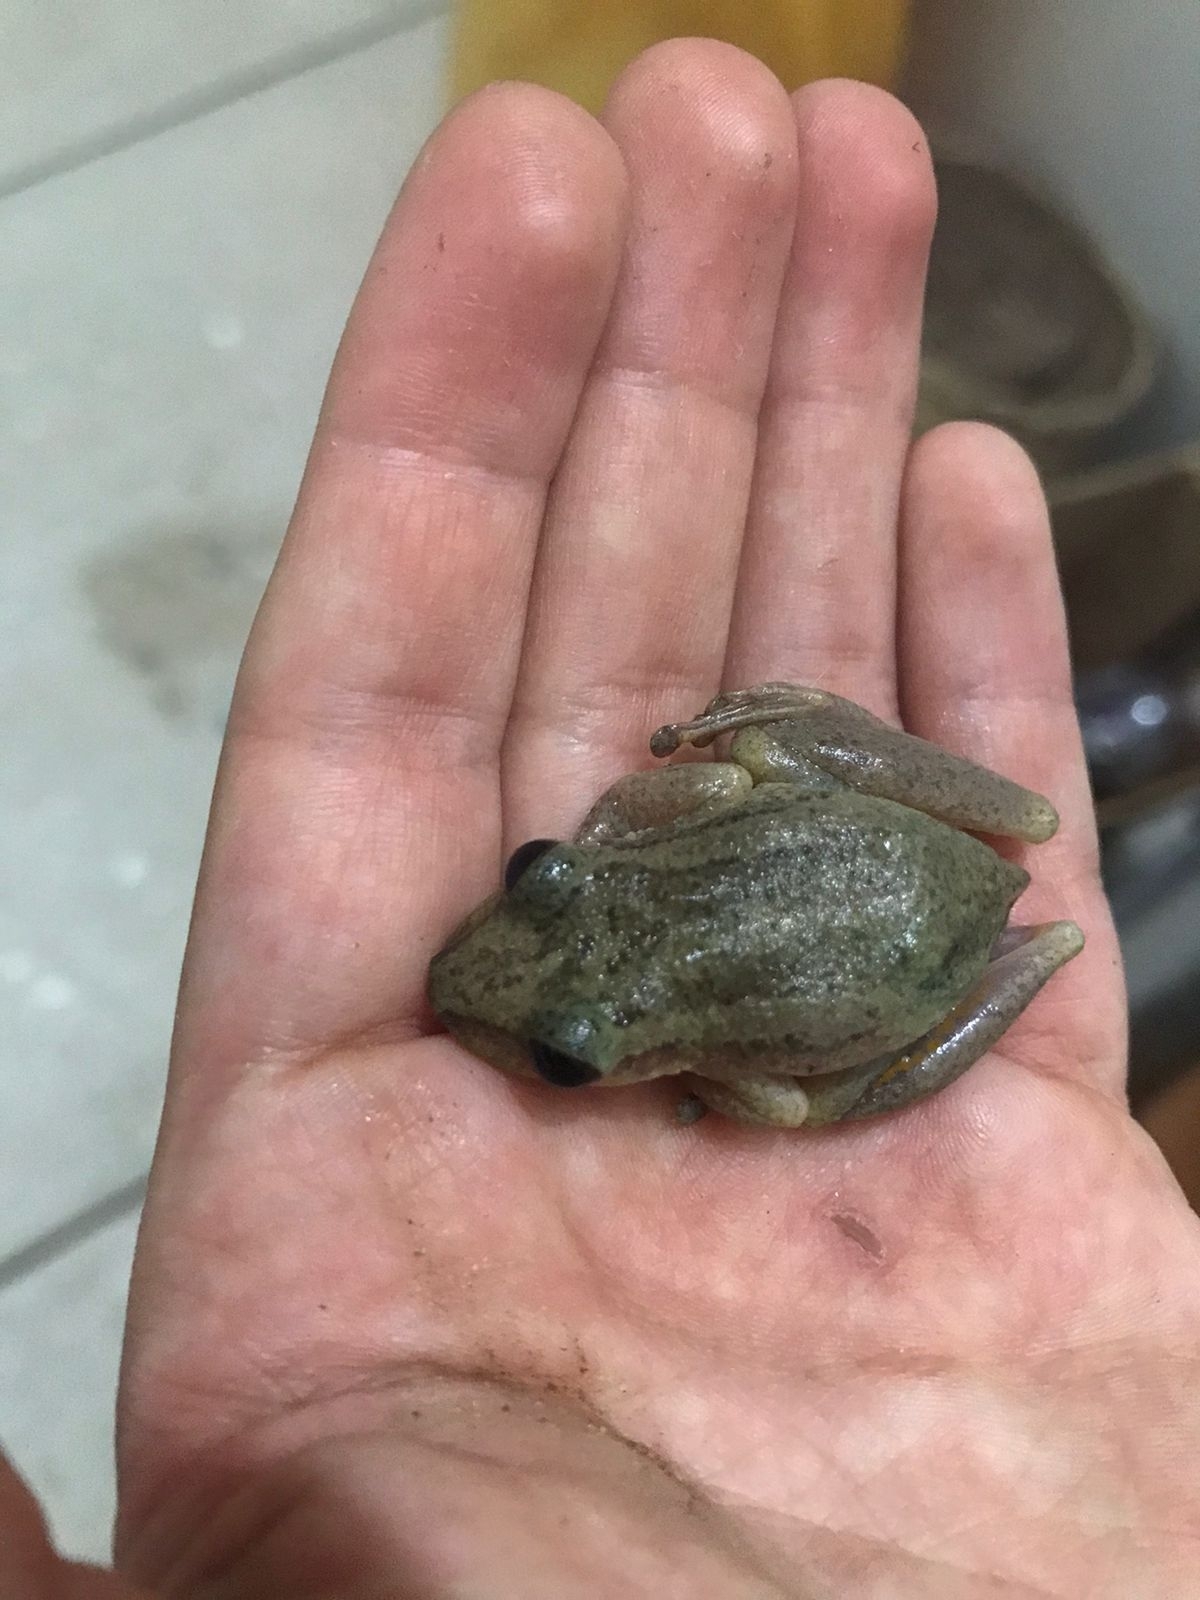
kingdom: Animalia
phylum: Chordata
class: Amphibia
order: Anura
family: Hylidae
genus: Scinax
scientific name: Scinax ruber
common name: Red snouted treefrog
